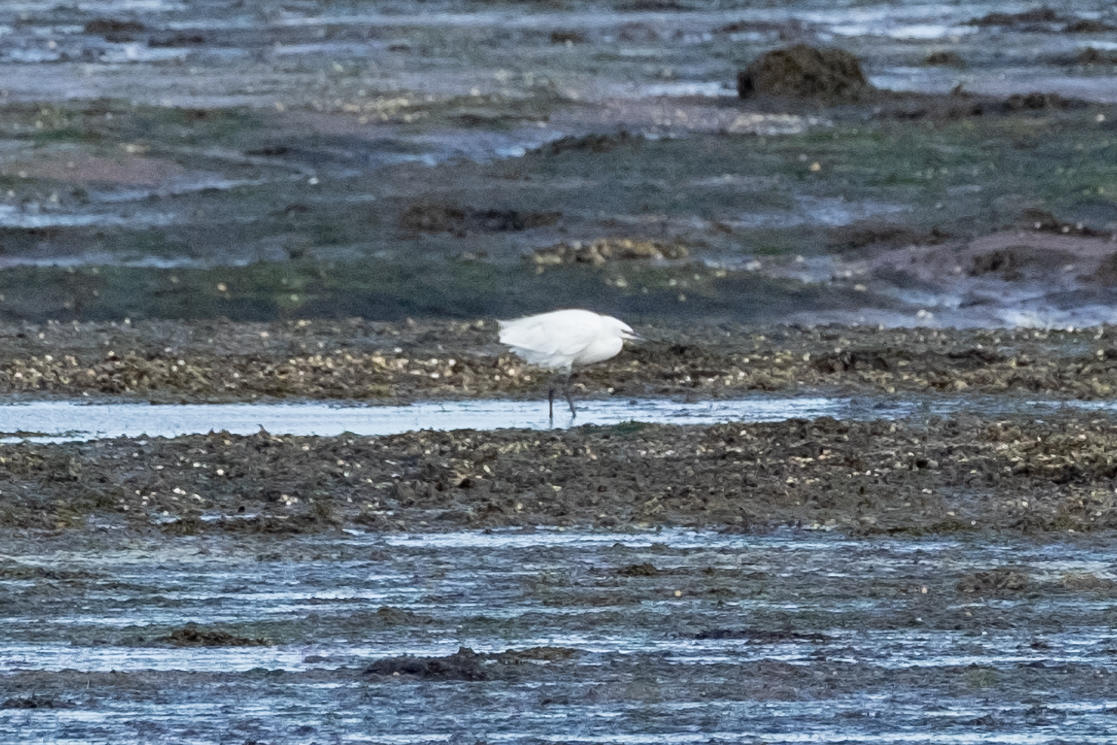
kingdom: Animalia
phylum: Chordata
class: Aves
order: Pelecaniformes
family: Ardeidae
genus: Egretta
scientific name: Egretta garzetta
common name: Little egret
